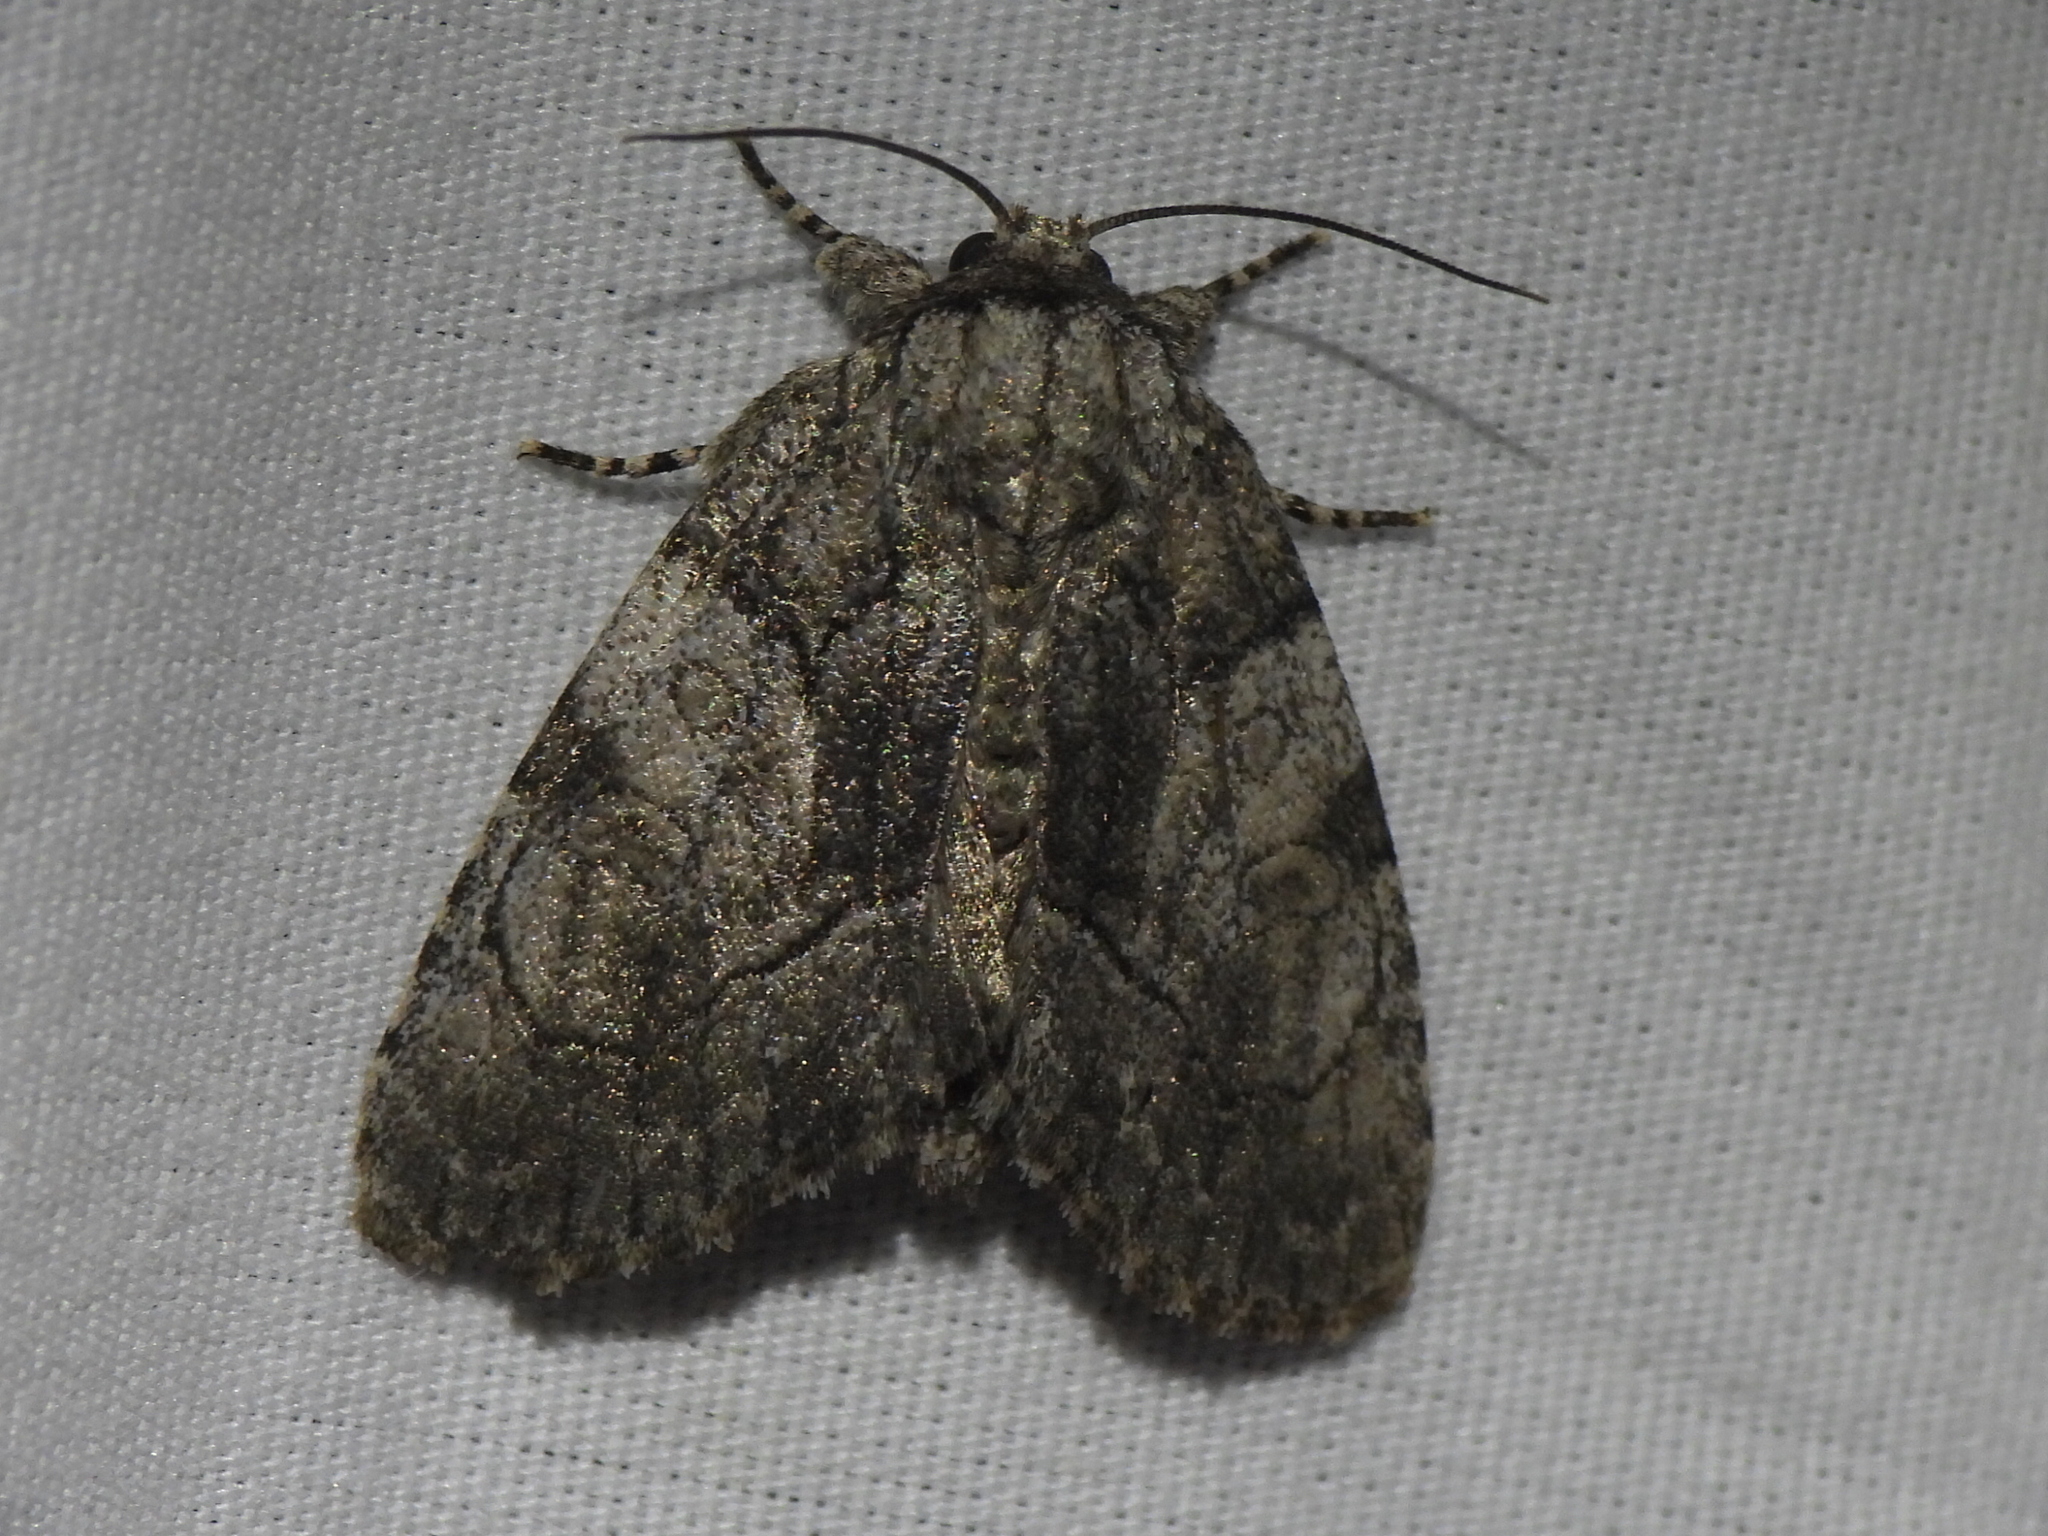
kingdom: Animalia
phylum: Arthropoda
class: Insecta
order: Lepidoptera
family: Noctuidae
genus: Raphia
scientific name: Raphia frater
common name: Brother
